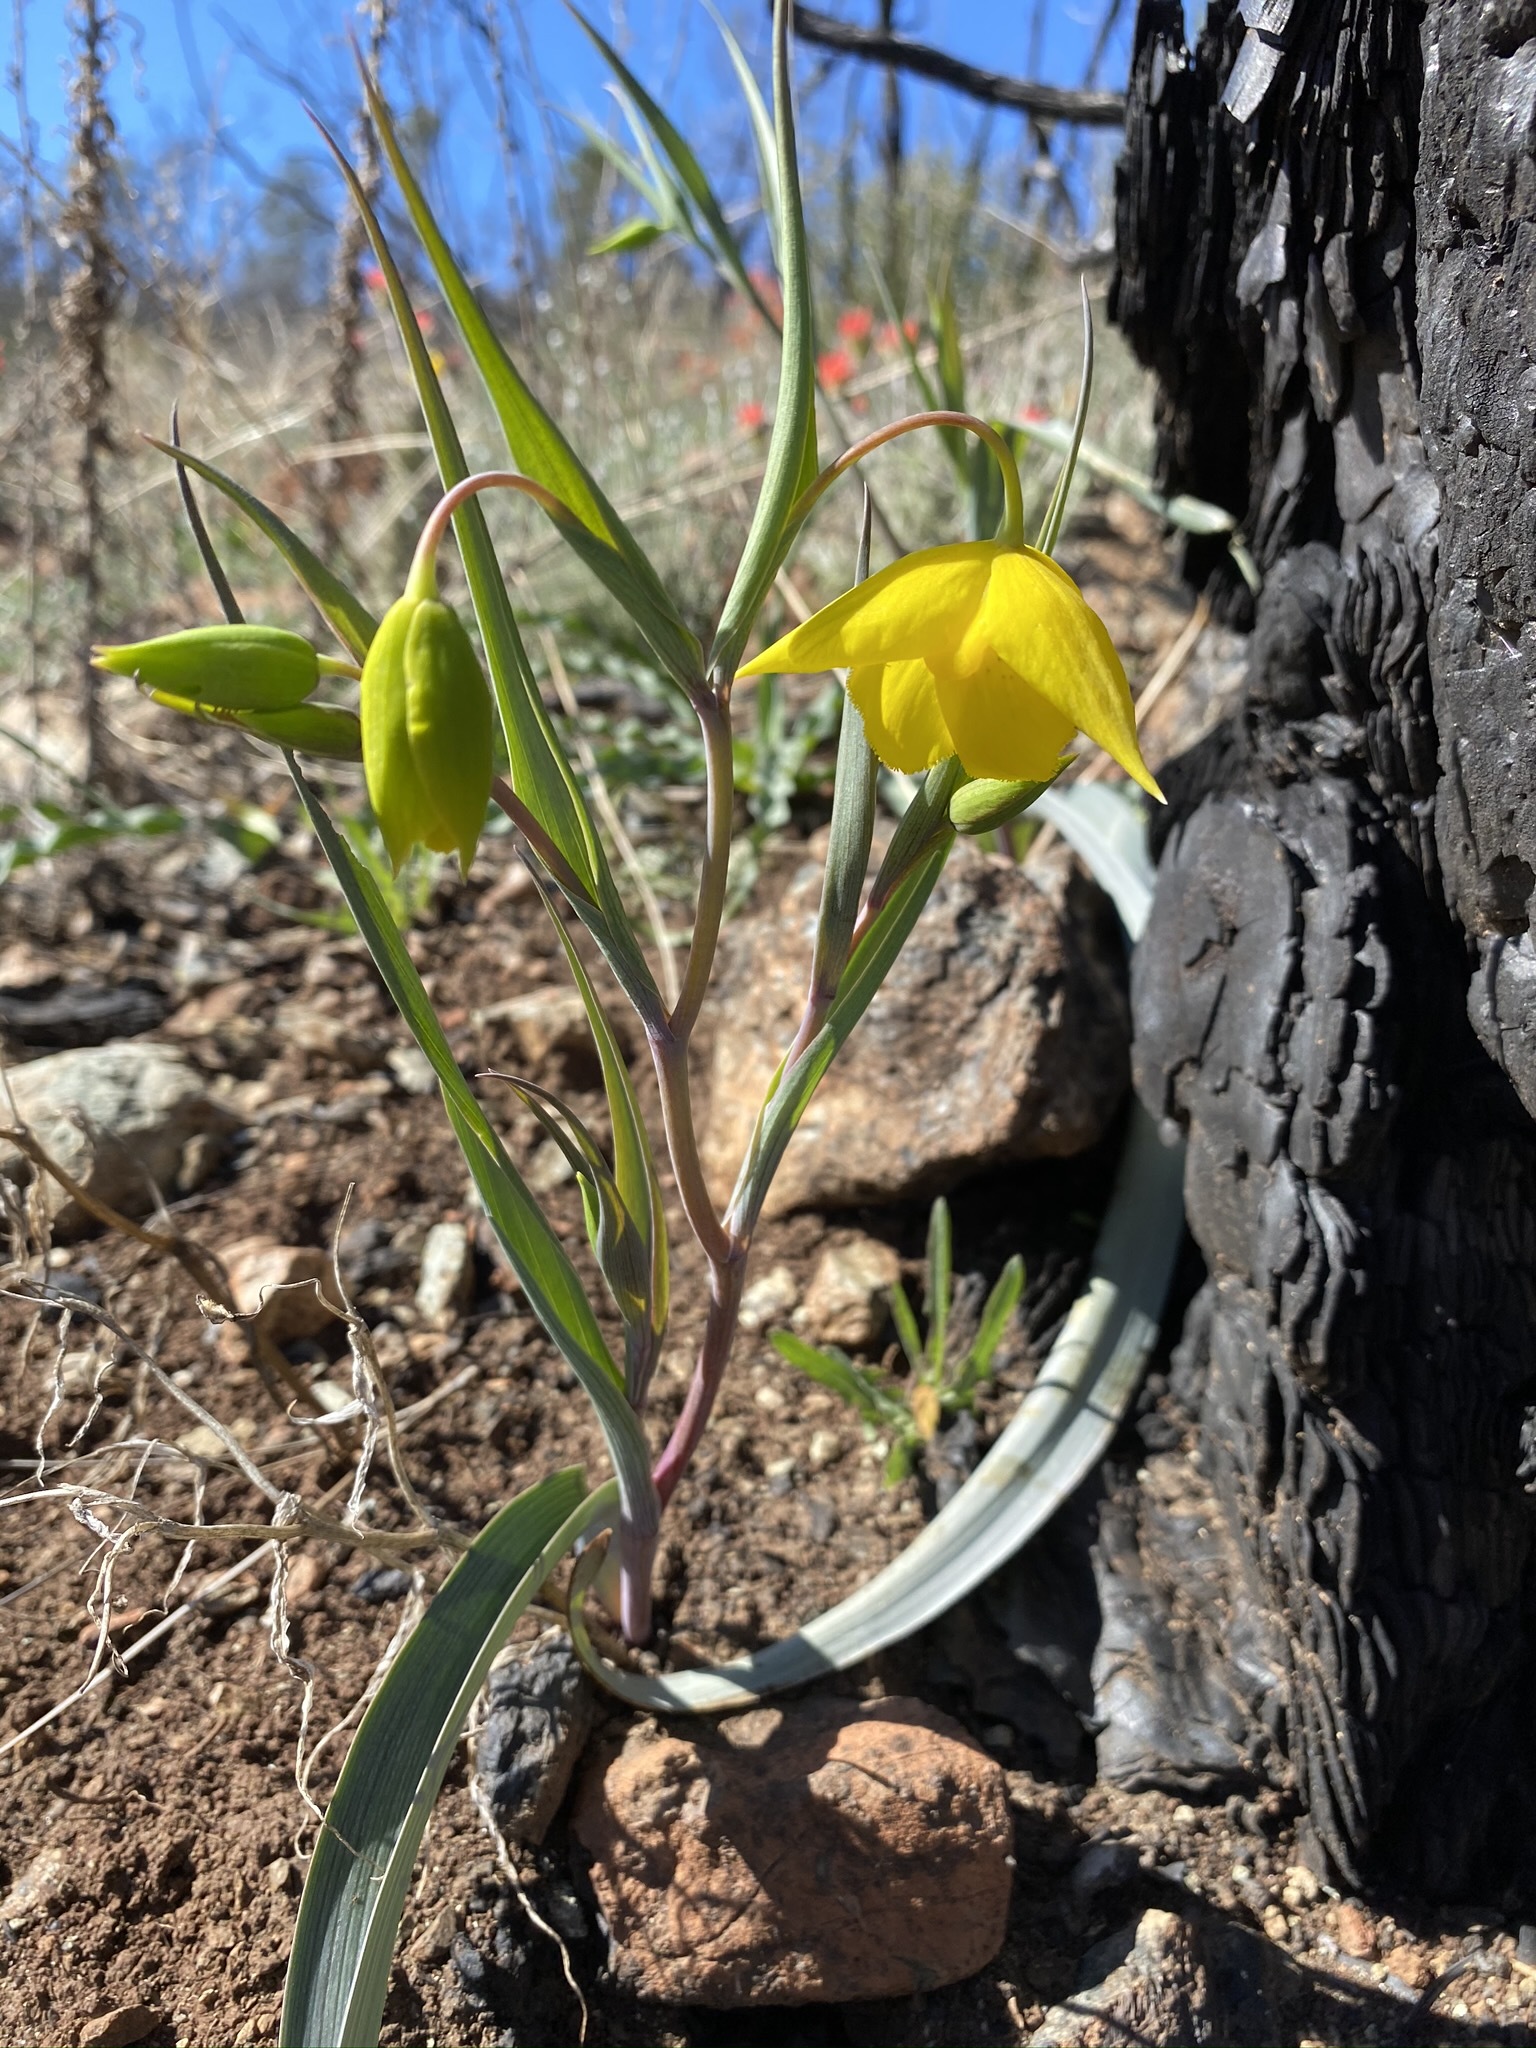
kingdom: Plantae
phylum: Tracheophyta
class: Liliopsida
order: Liliales
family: Liliaceae
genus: Calochortus
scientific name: Calochortus amabilis
